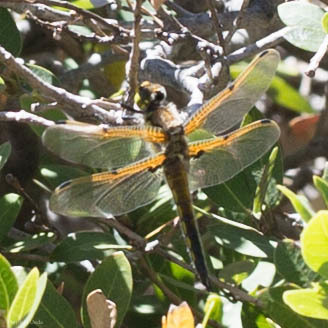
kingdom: Animalia
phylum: Arthropoda
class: Insecta
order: Odonata
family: Libellulidae
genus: Libellula
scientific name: Libellula quadrimaculata
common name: Four-spotted chaser
